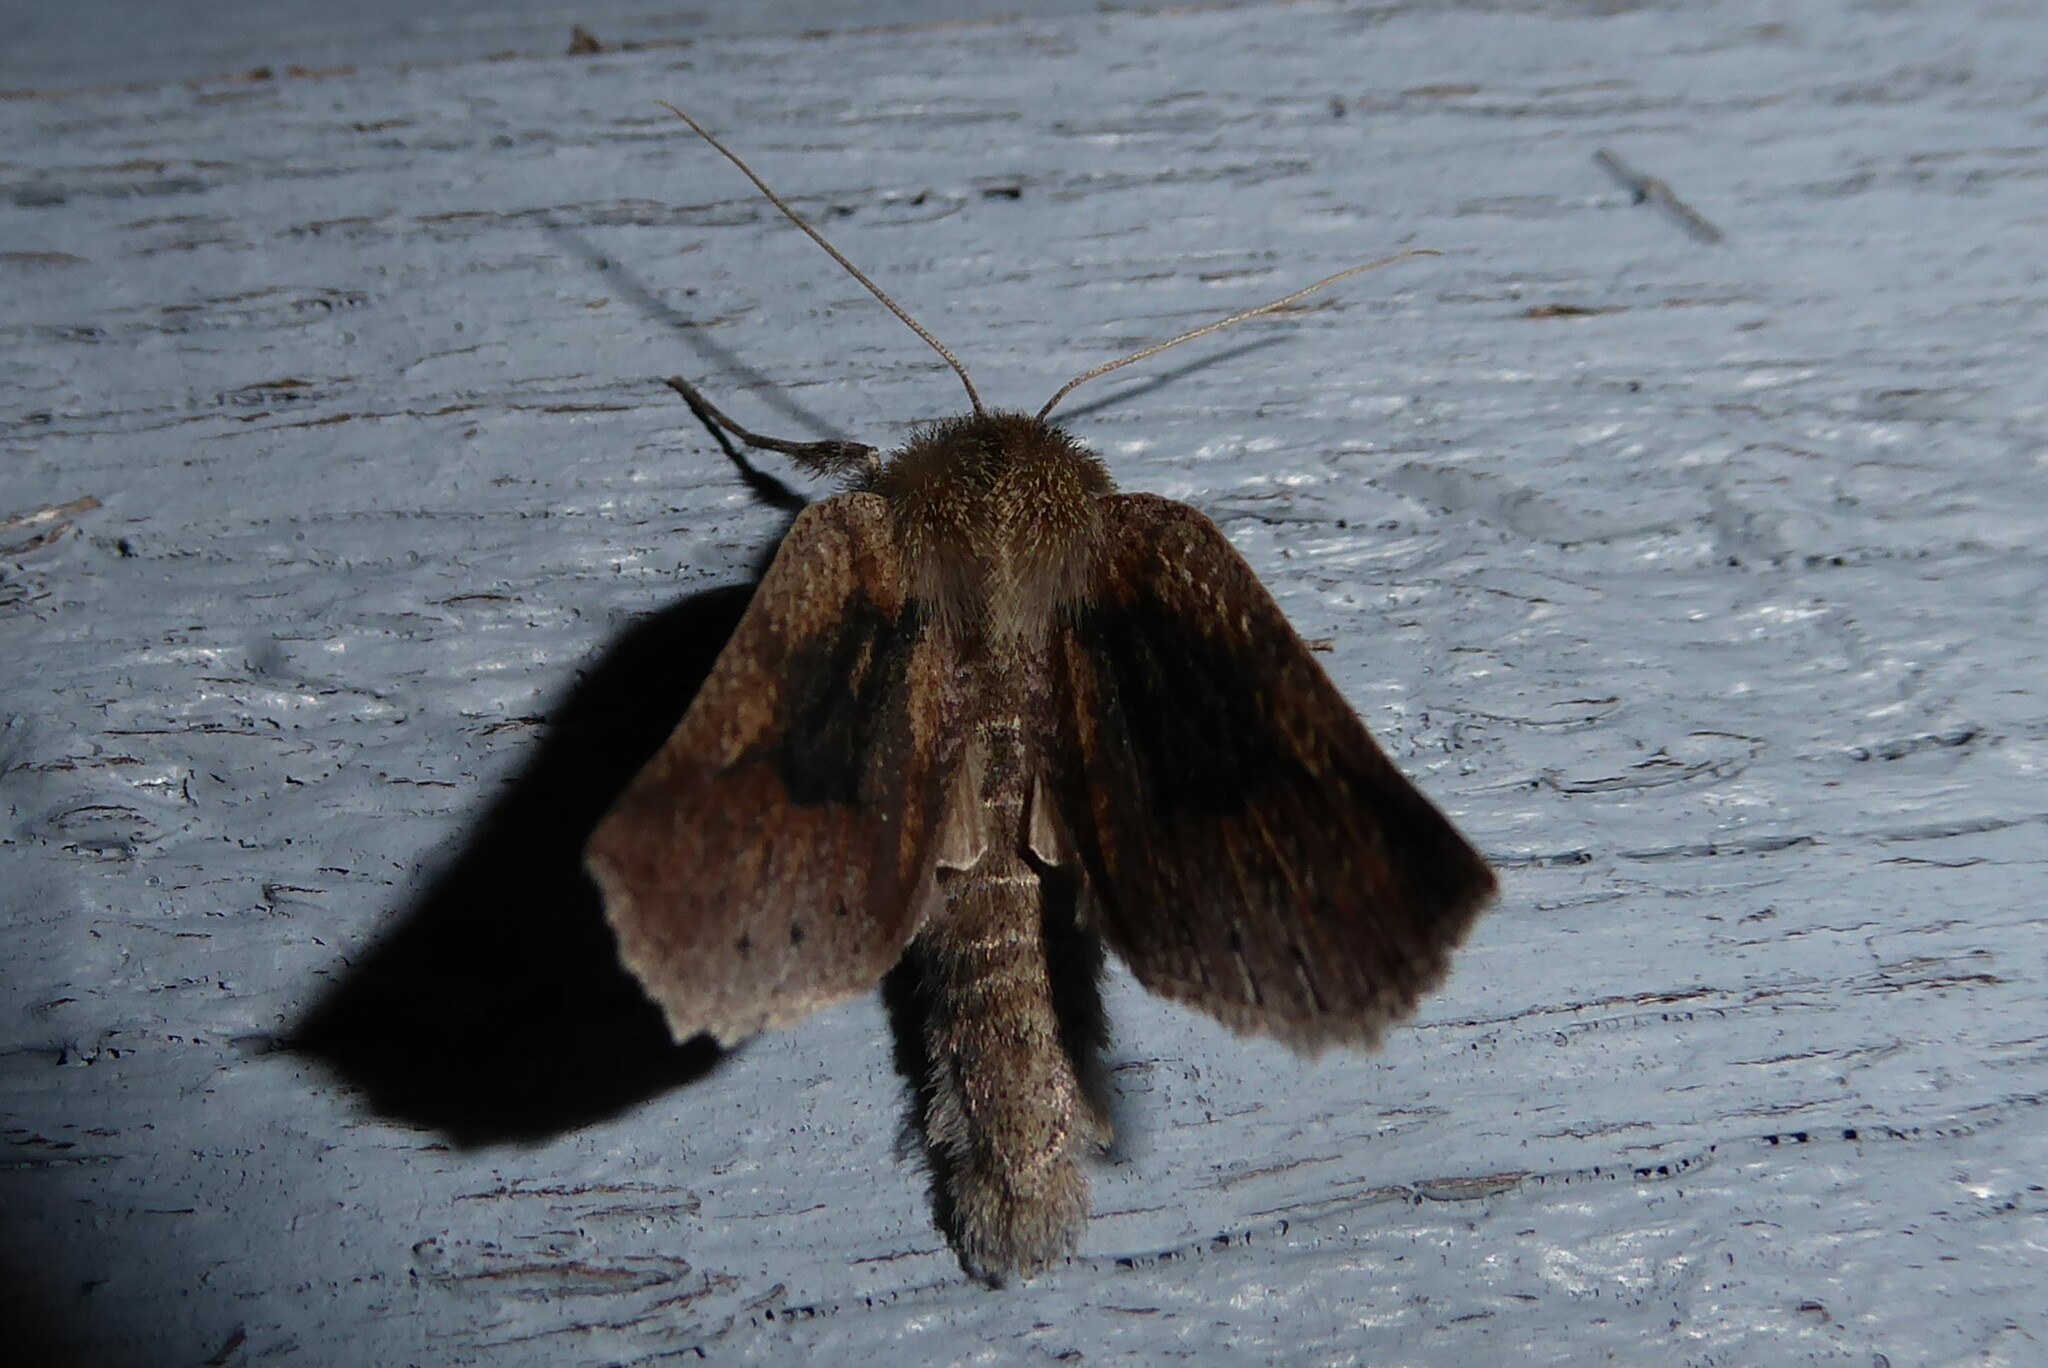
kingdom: Animalia
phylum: Arthropoda
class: Insecta
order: Lepidoptera
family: Geometridae
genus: Declana
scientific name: Declana leptomera
